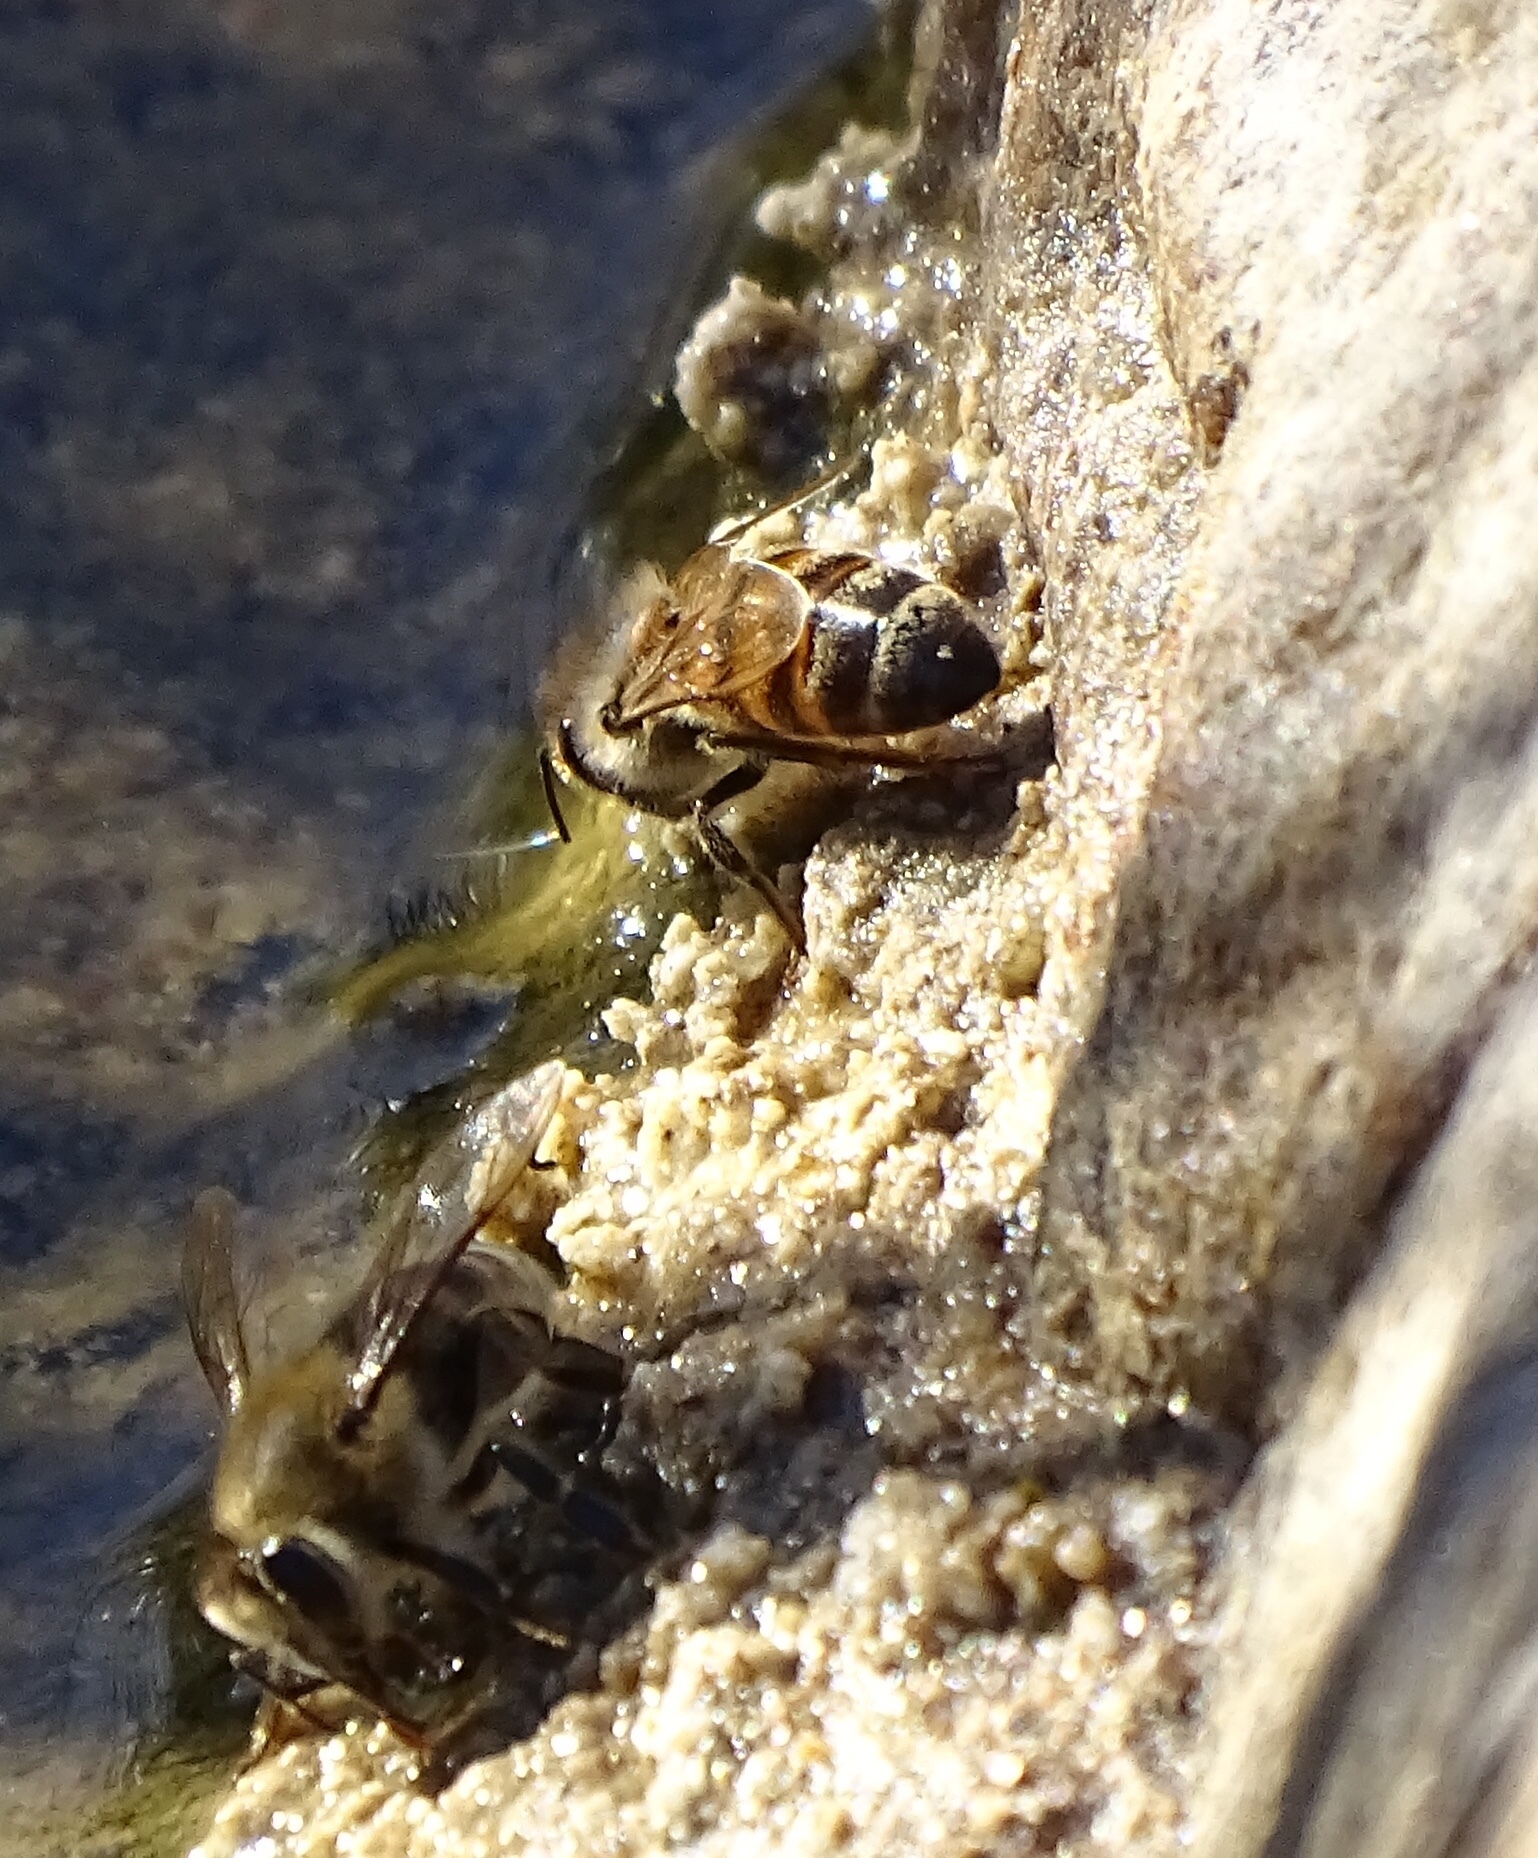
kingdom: Animalia
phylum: Arthropoda
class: Insecta
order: Hymenoptera
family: Apidae
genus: Apis
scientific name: Apis mellifera
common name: Honey bee
